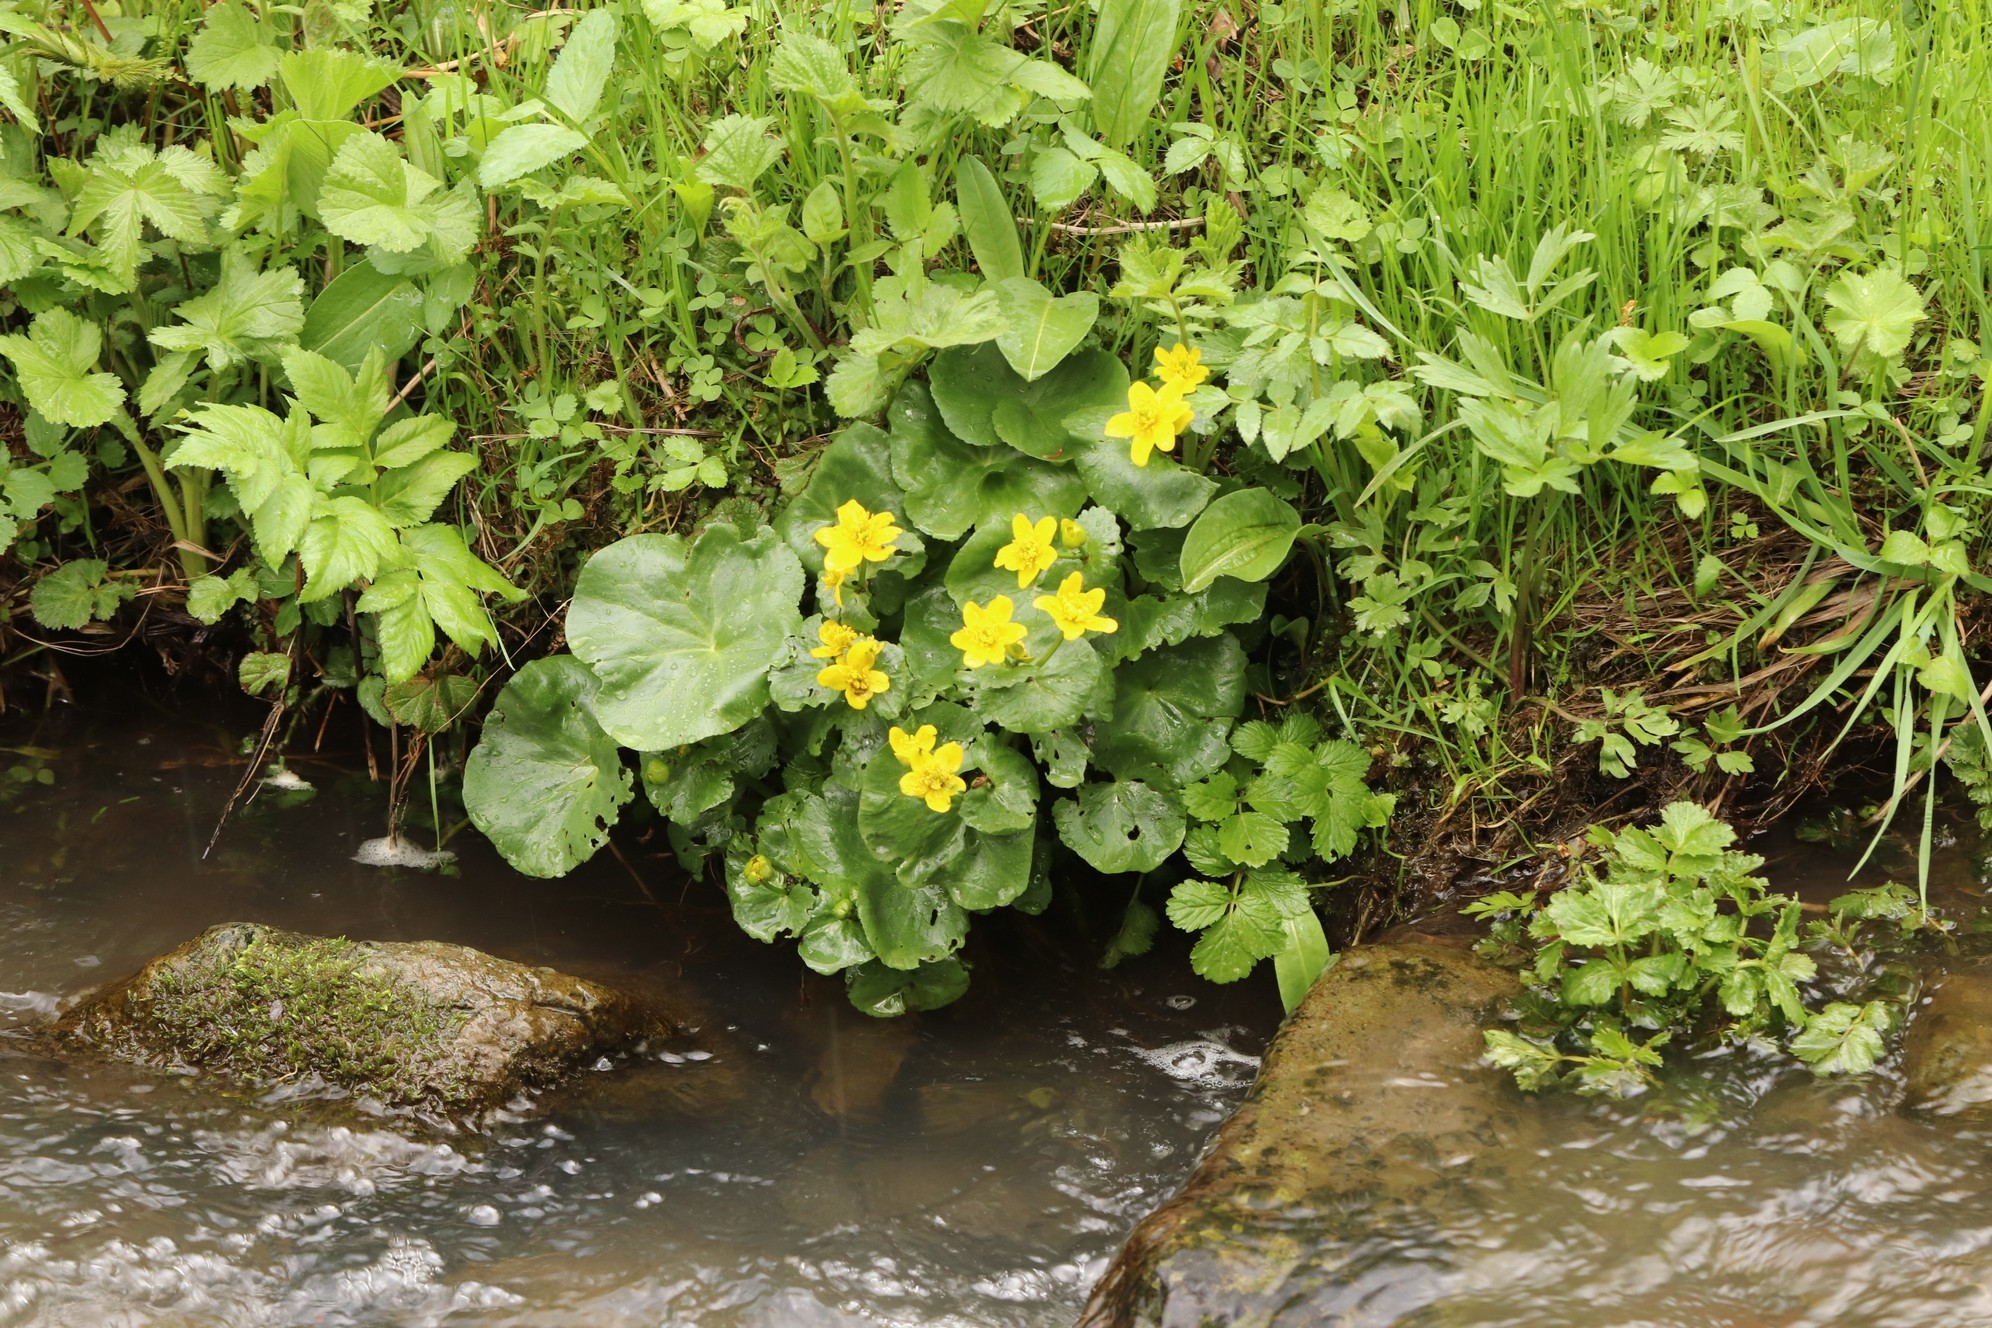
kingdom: Plantae
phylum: Tracheophyta
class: Magnoliopsida
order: Ranunculales
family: Ranunculaceae
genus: Caltha
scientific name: Caltha palustris
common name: Marsh marigold
